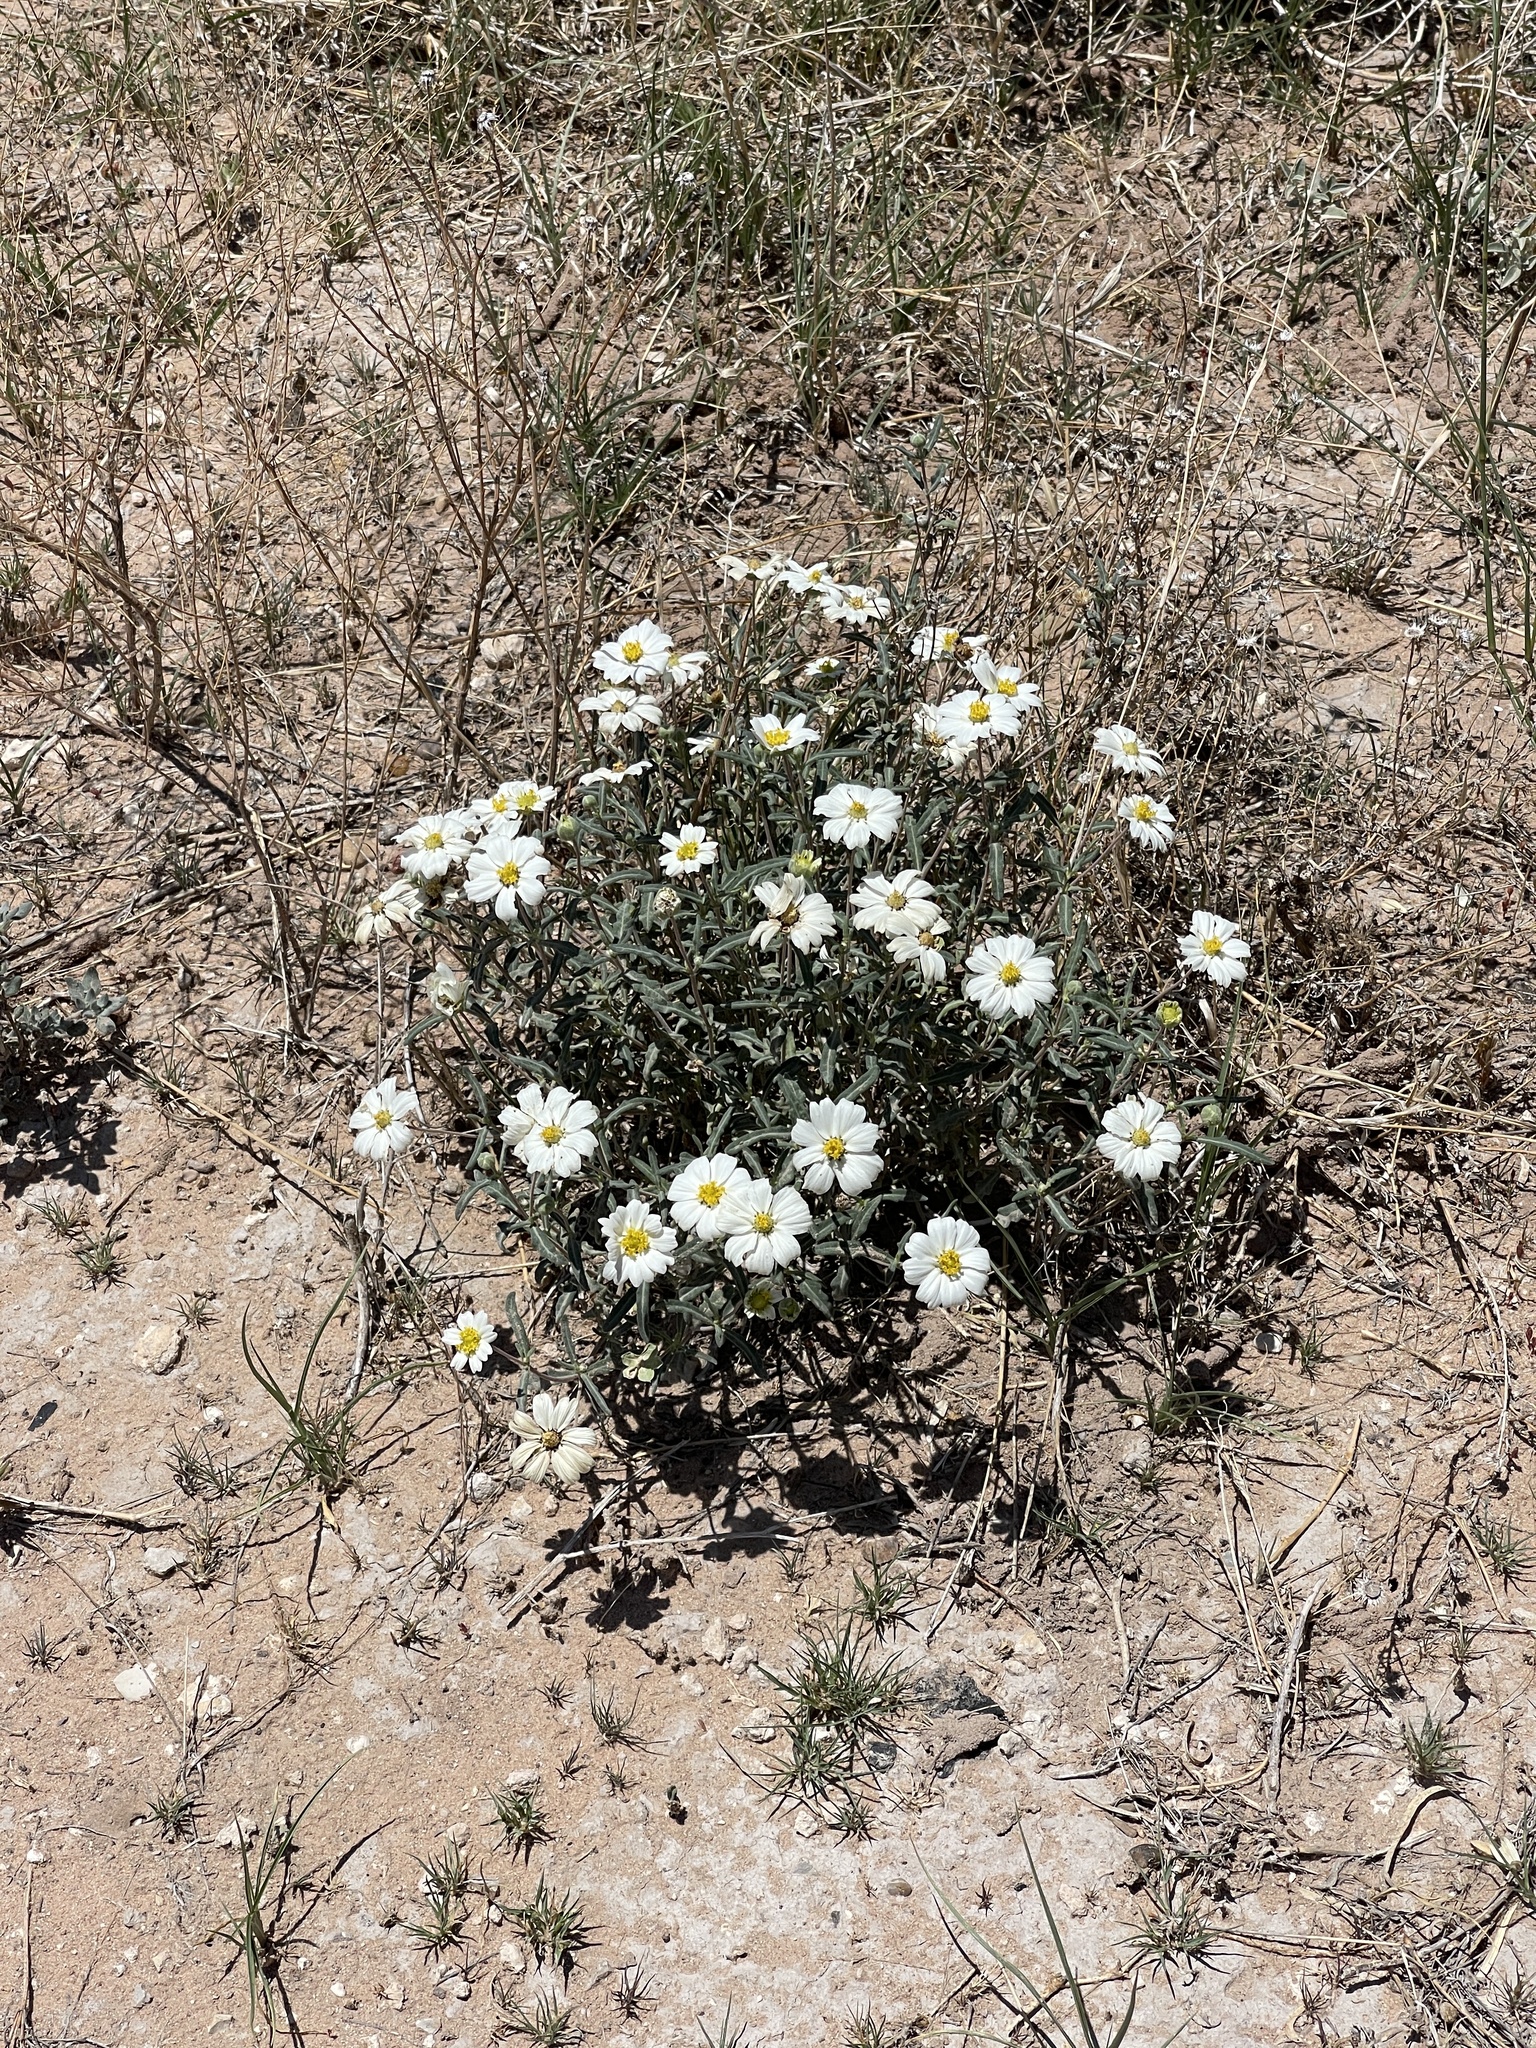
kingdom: Plantae
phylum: Tracheophyta
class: Magnoliopsida
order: Asterales
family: Asteraceae
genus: Melampodium
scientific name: Melampodium leucanthum
